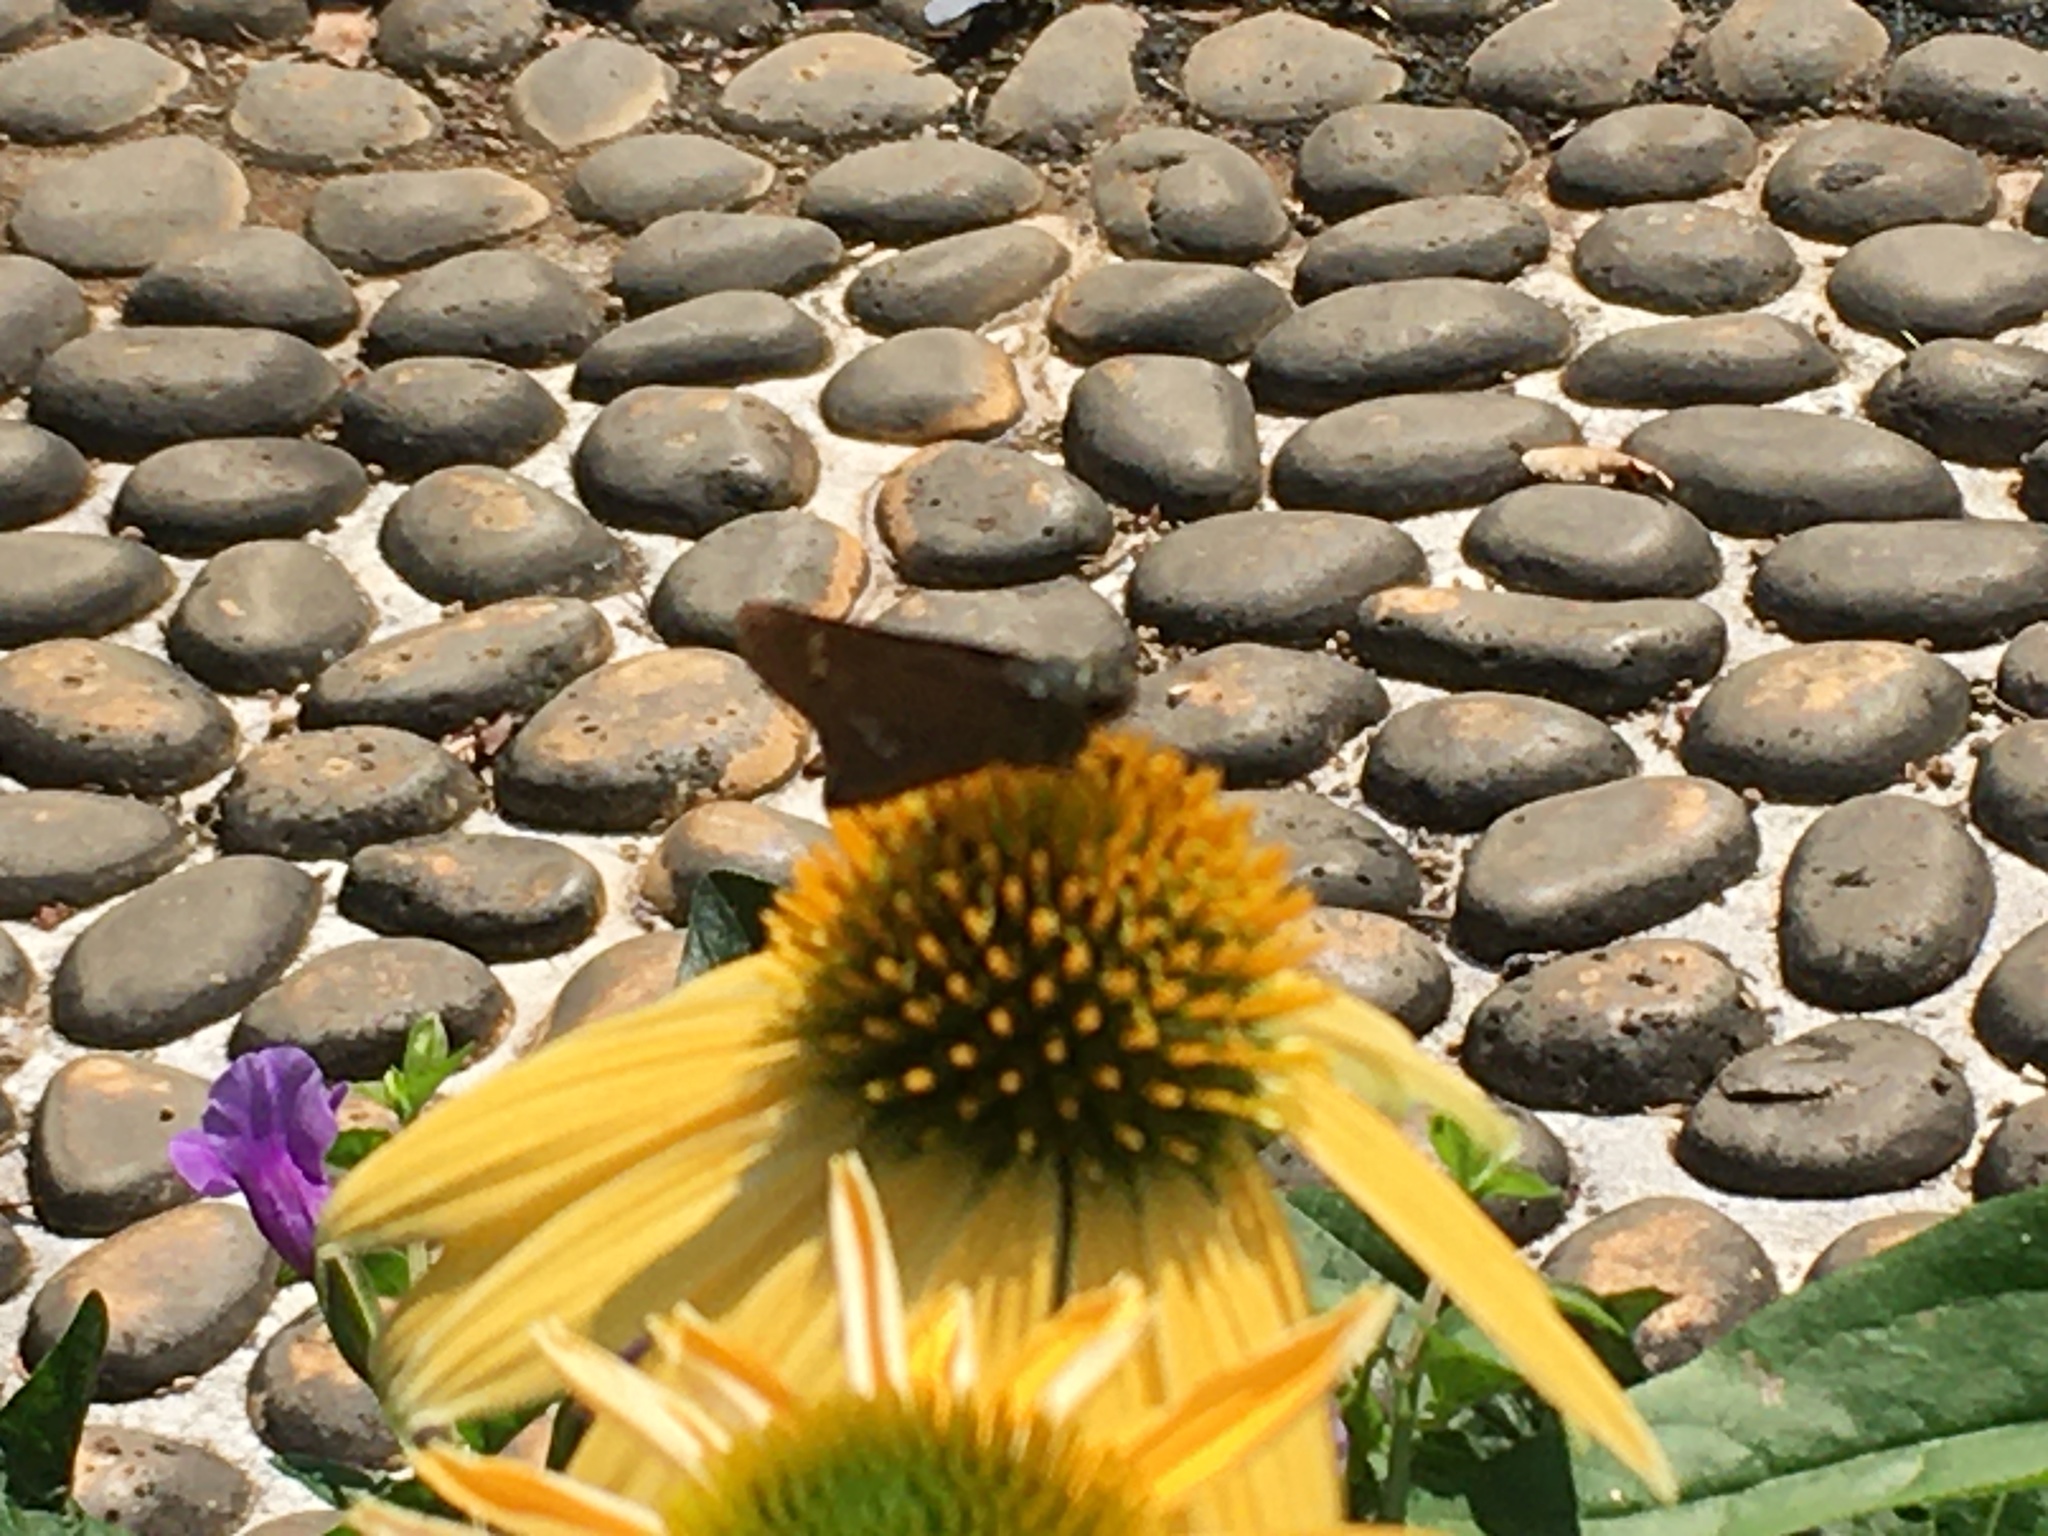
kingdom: Animalia
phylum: Arthropoda
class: Insecta
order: Lepidoptera
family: Hesperiidae
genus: Parnara
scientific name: Parnara guttatus
